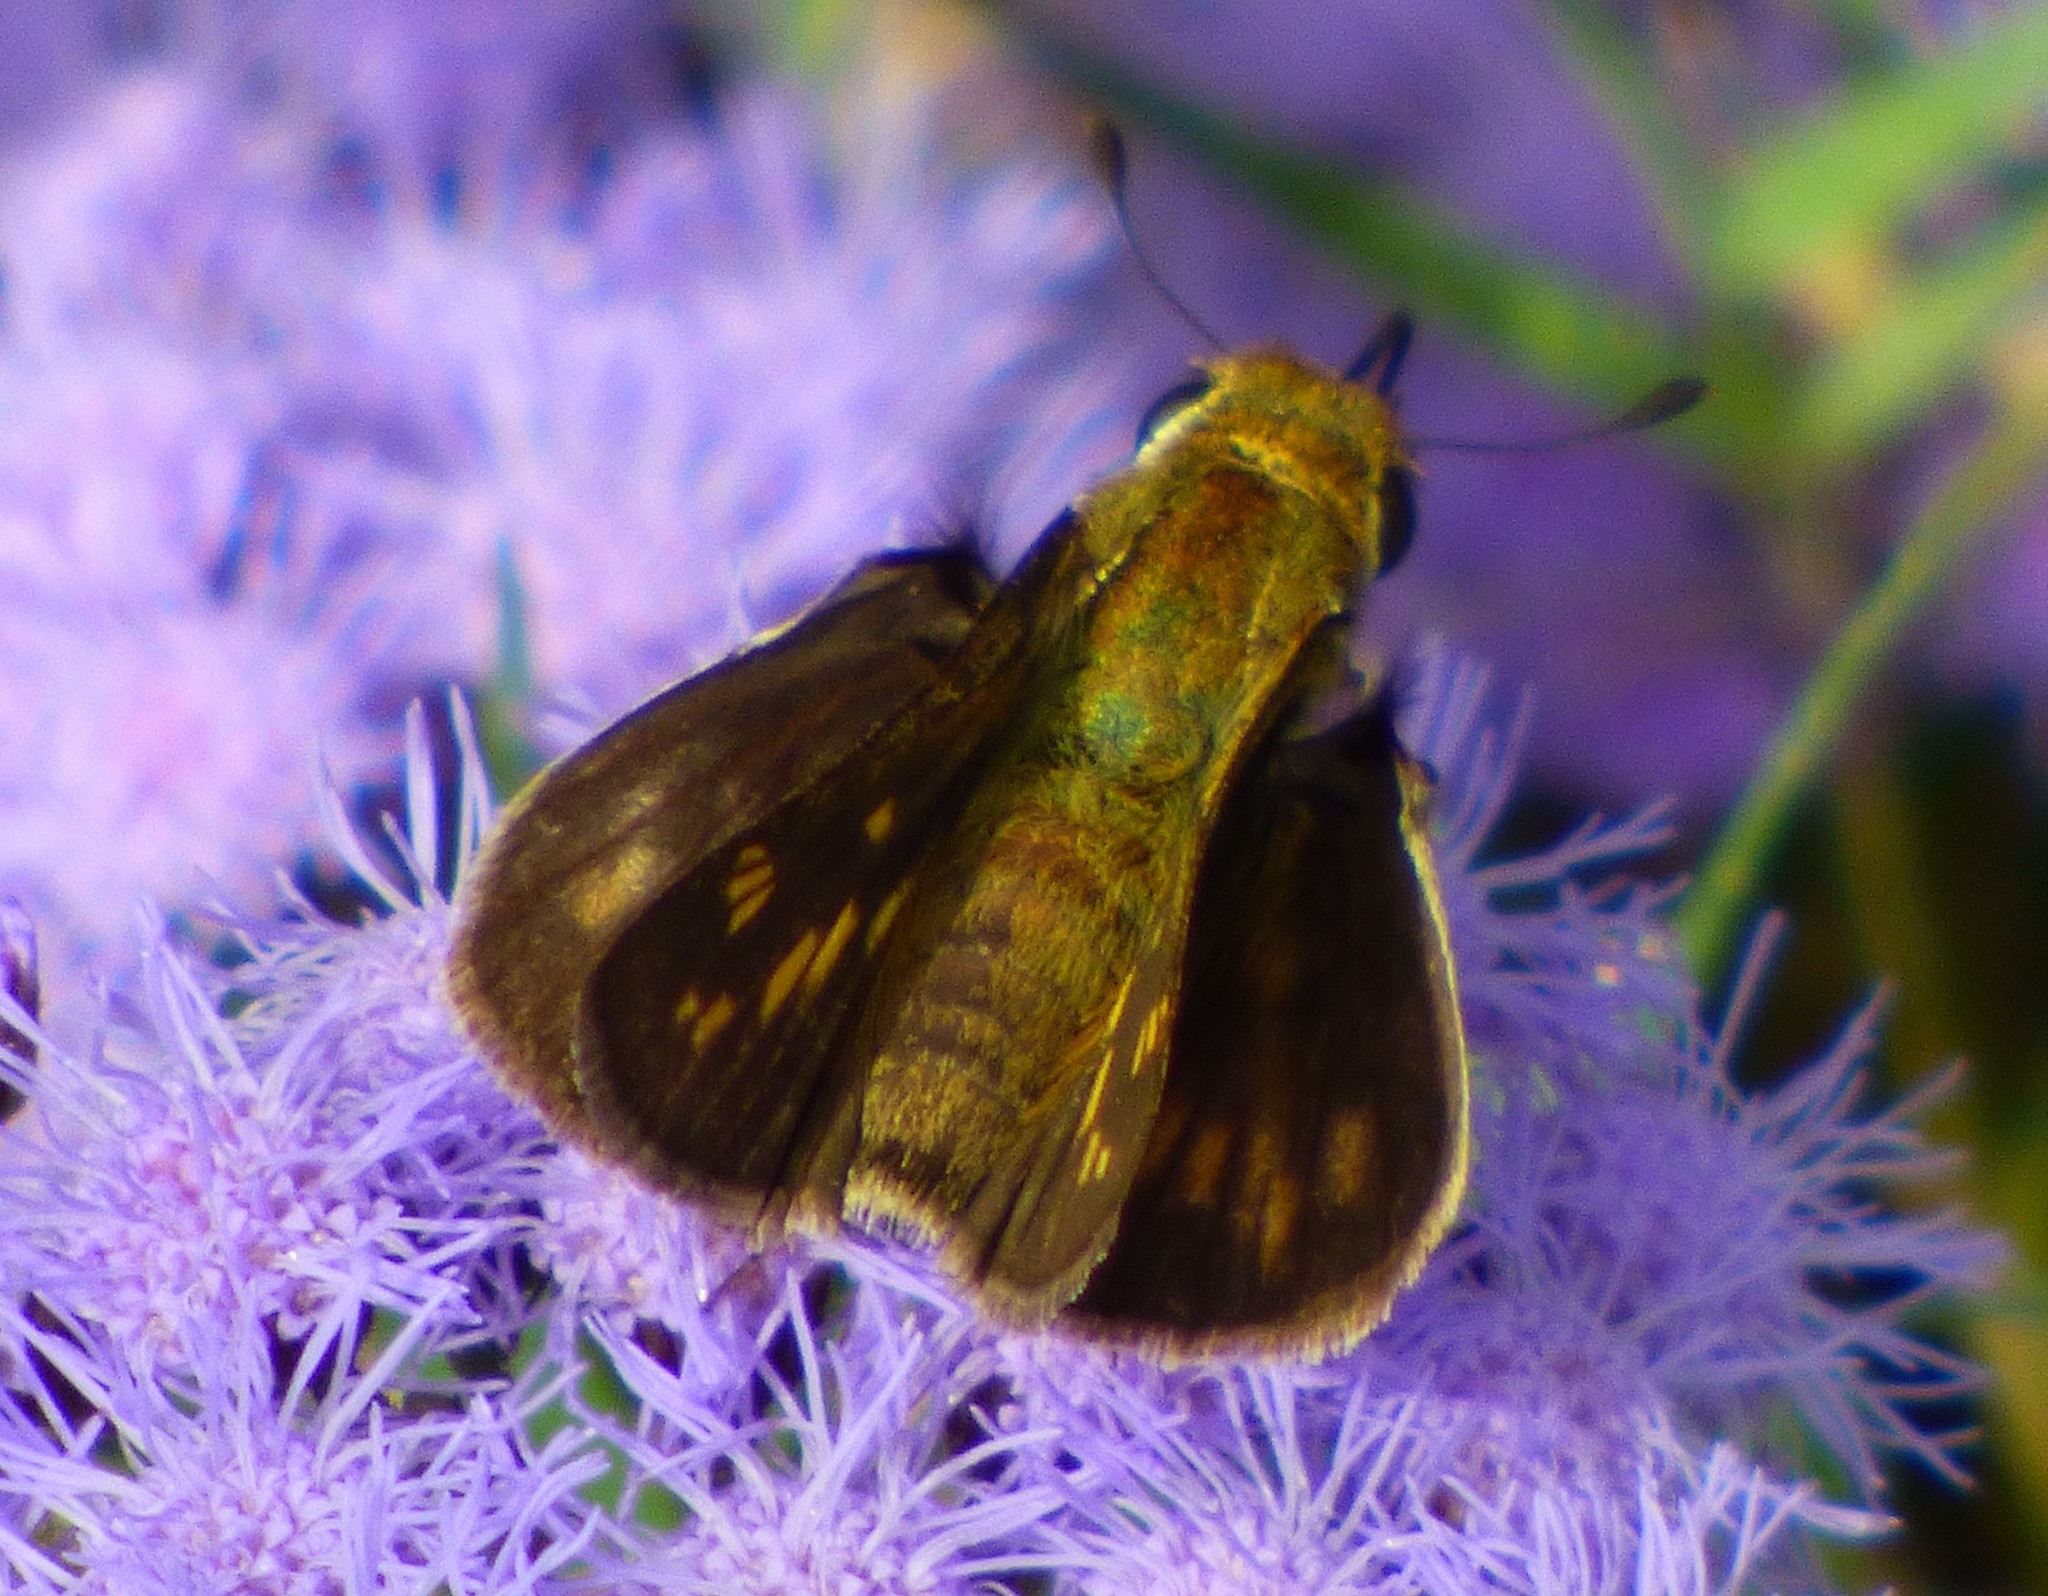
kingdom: Animalia
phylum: Arthropoda
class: Insecta
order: Lepidoptera
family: Hesperiidae
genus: Hylephila
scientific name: Hylephila phyleus
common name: Fiery skipper
